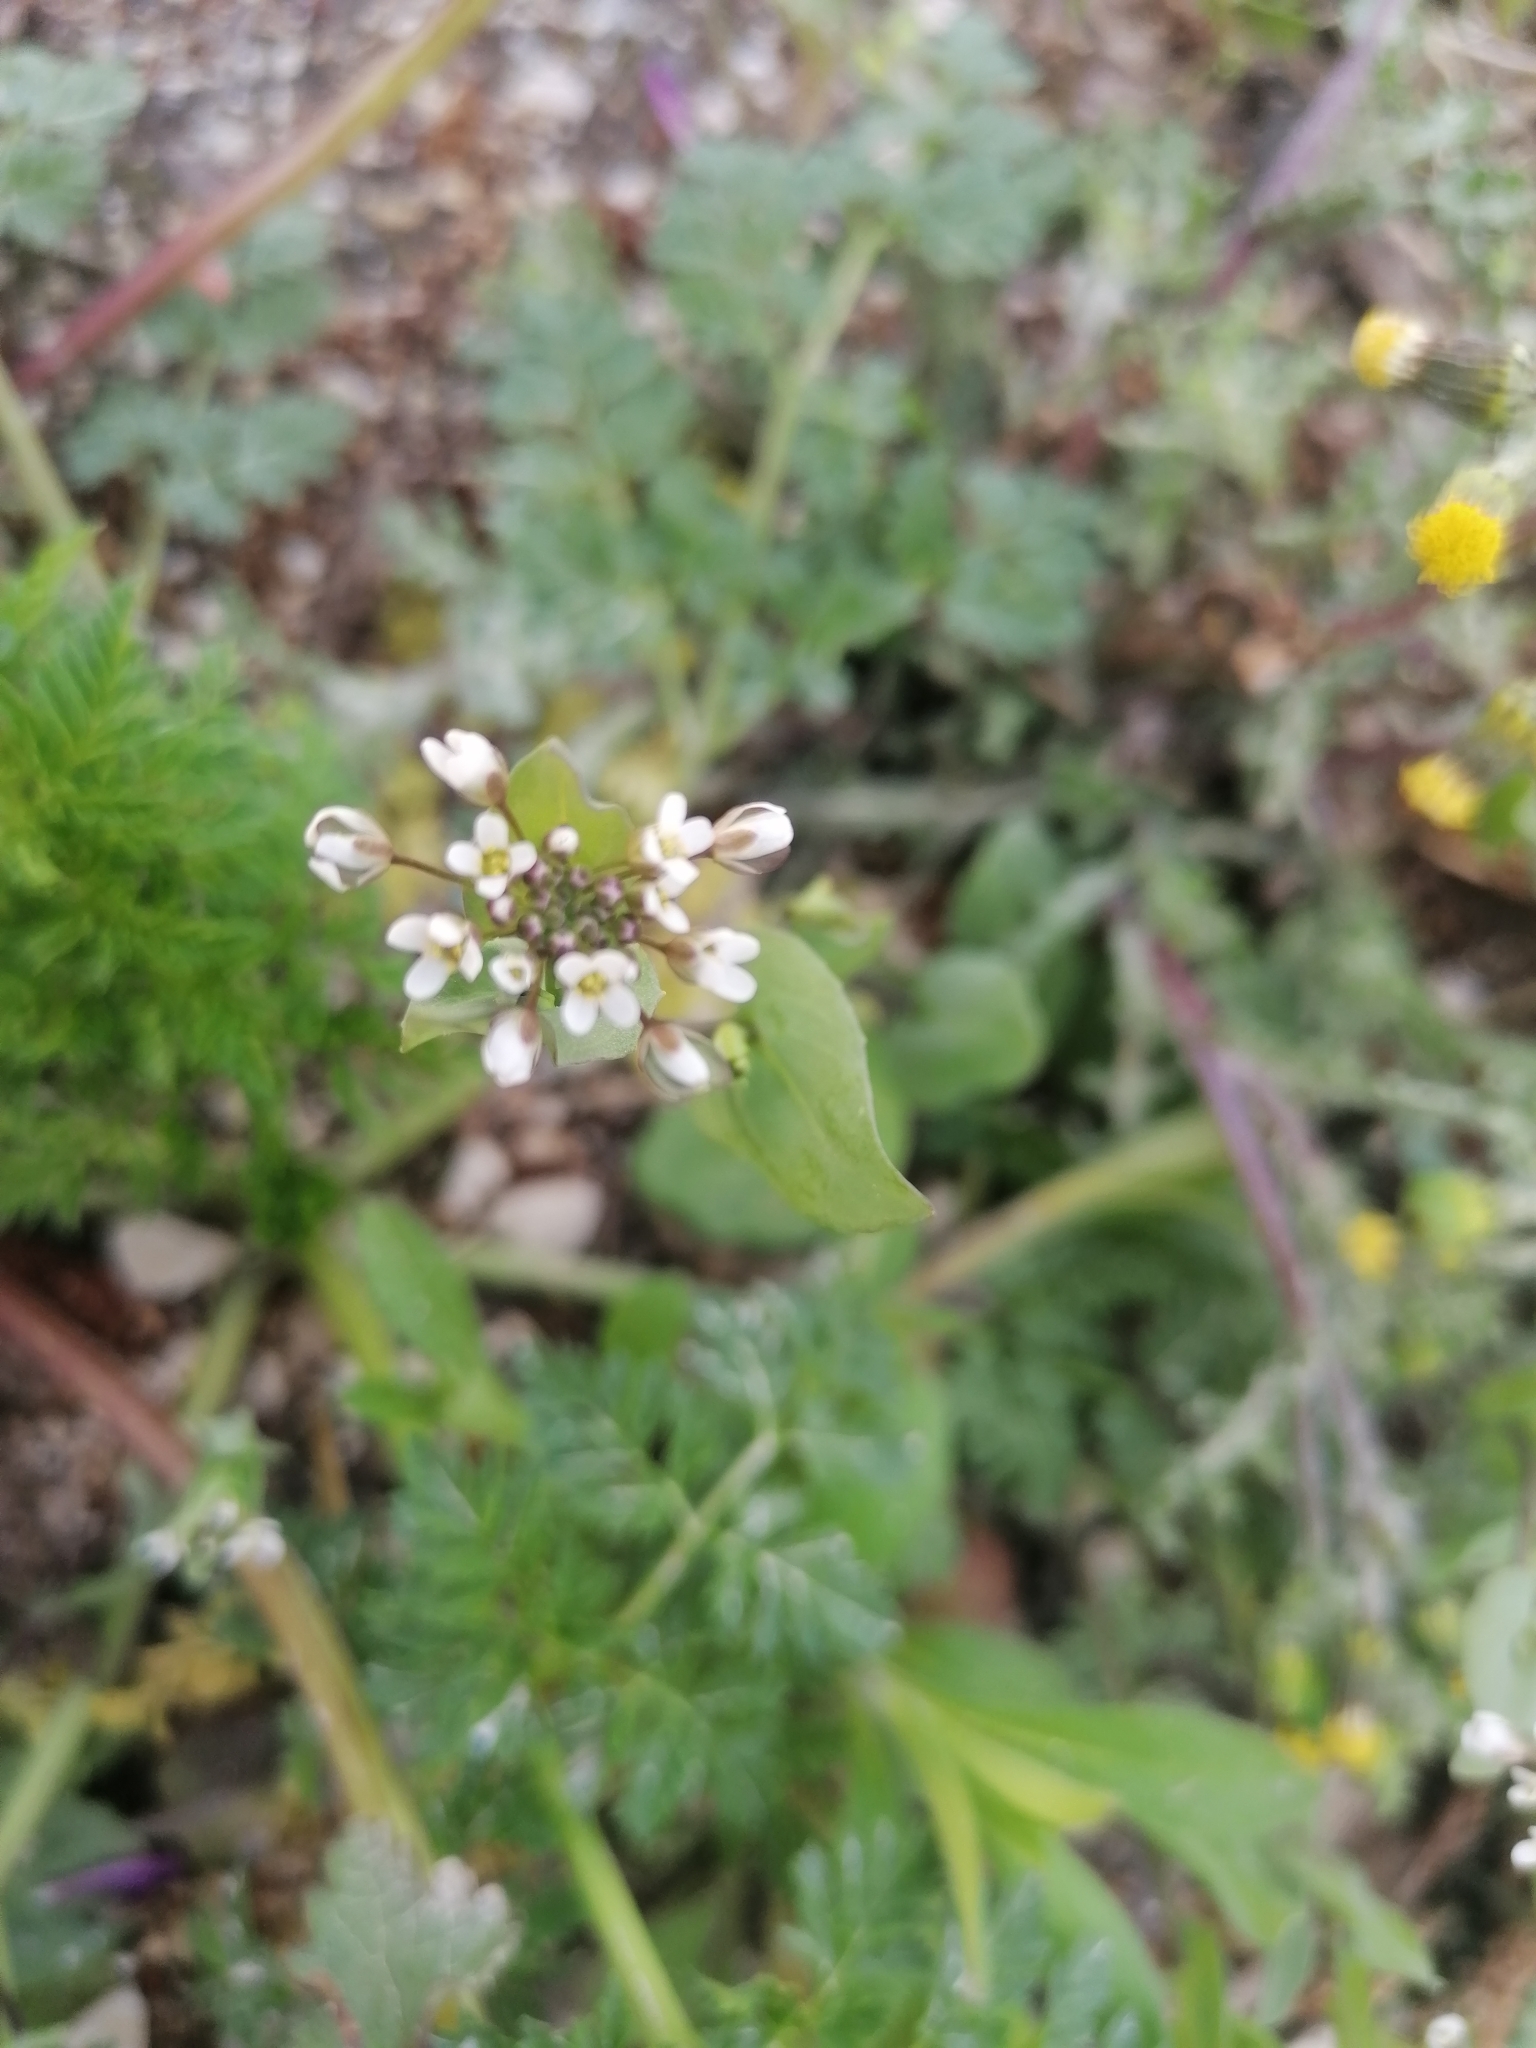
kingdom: Plantae
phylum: Tracheophyta
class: Magnoliopsida
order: Brassicales
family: Brassicaceae
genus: Noccaea
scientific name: Noccaea perfoliata
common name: Perfoliate pennycress
